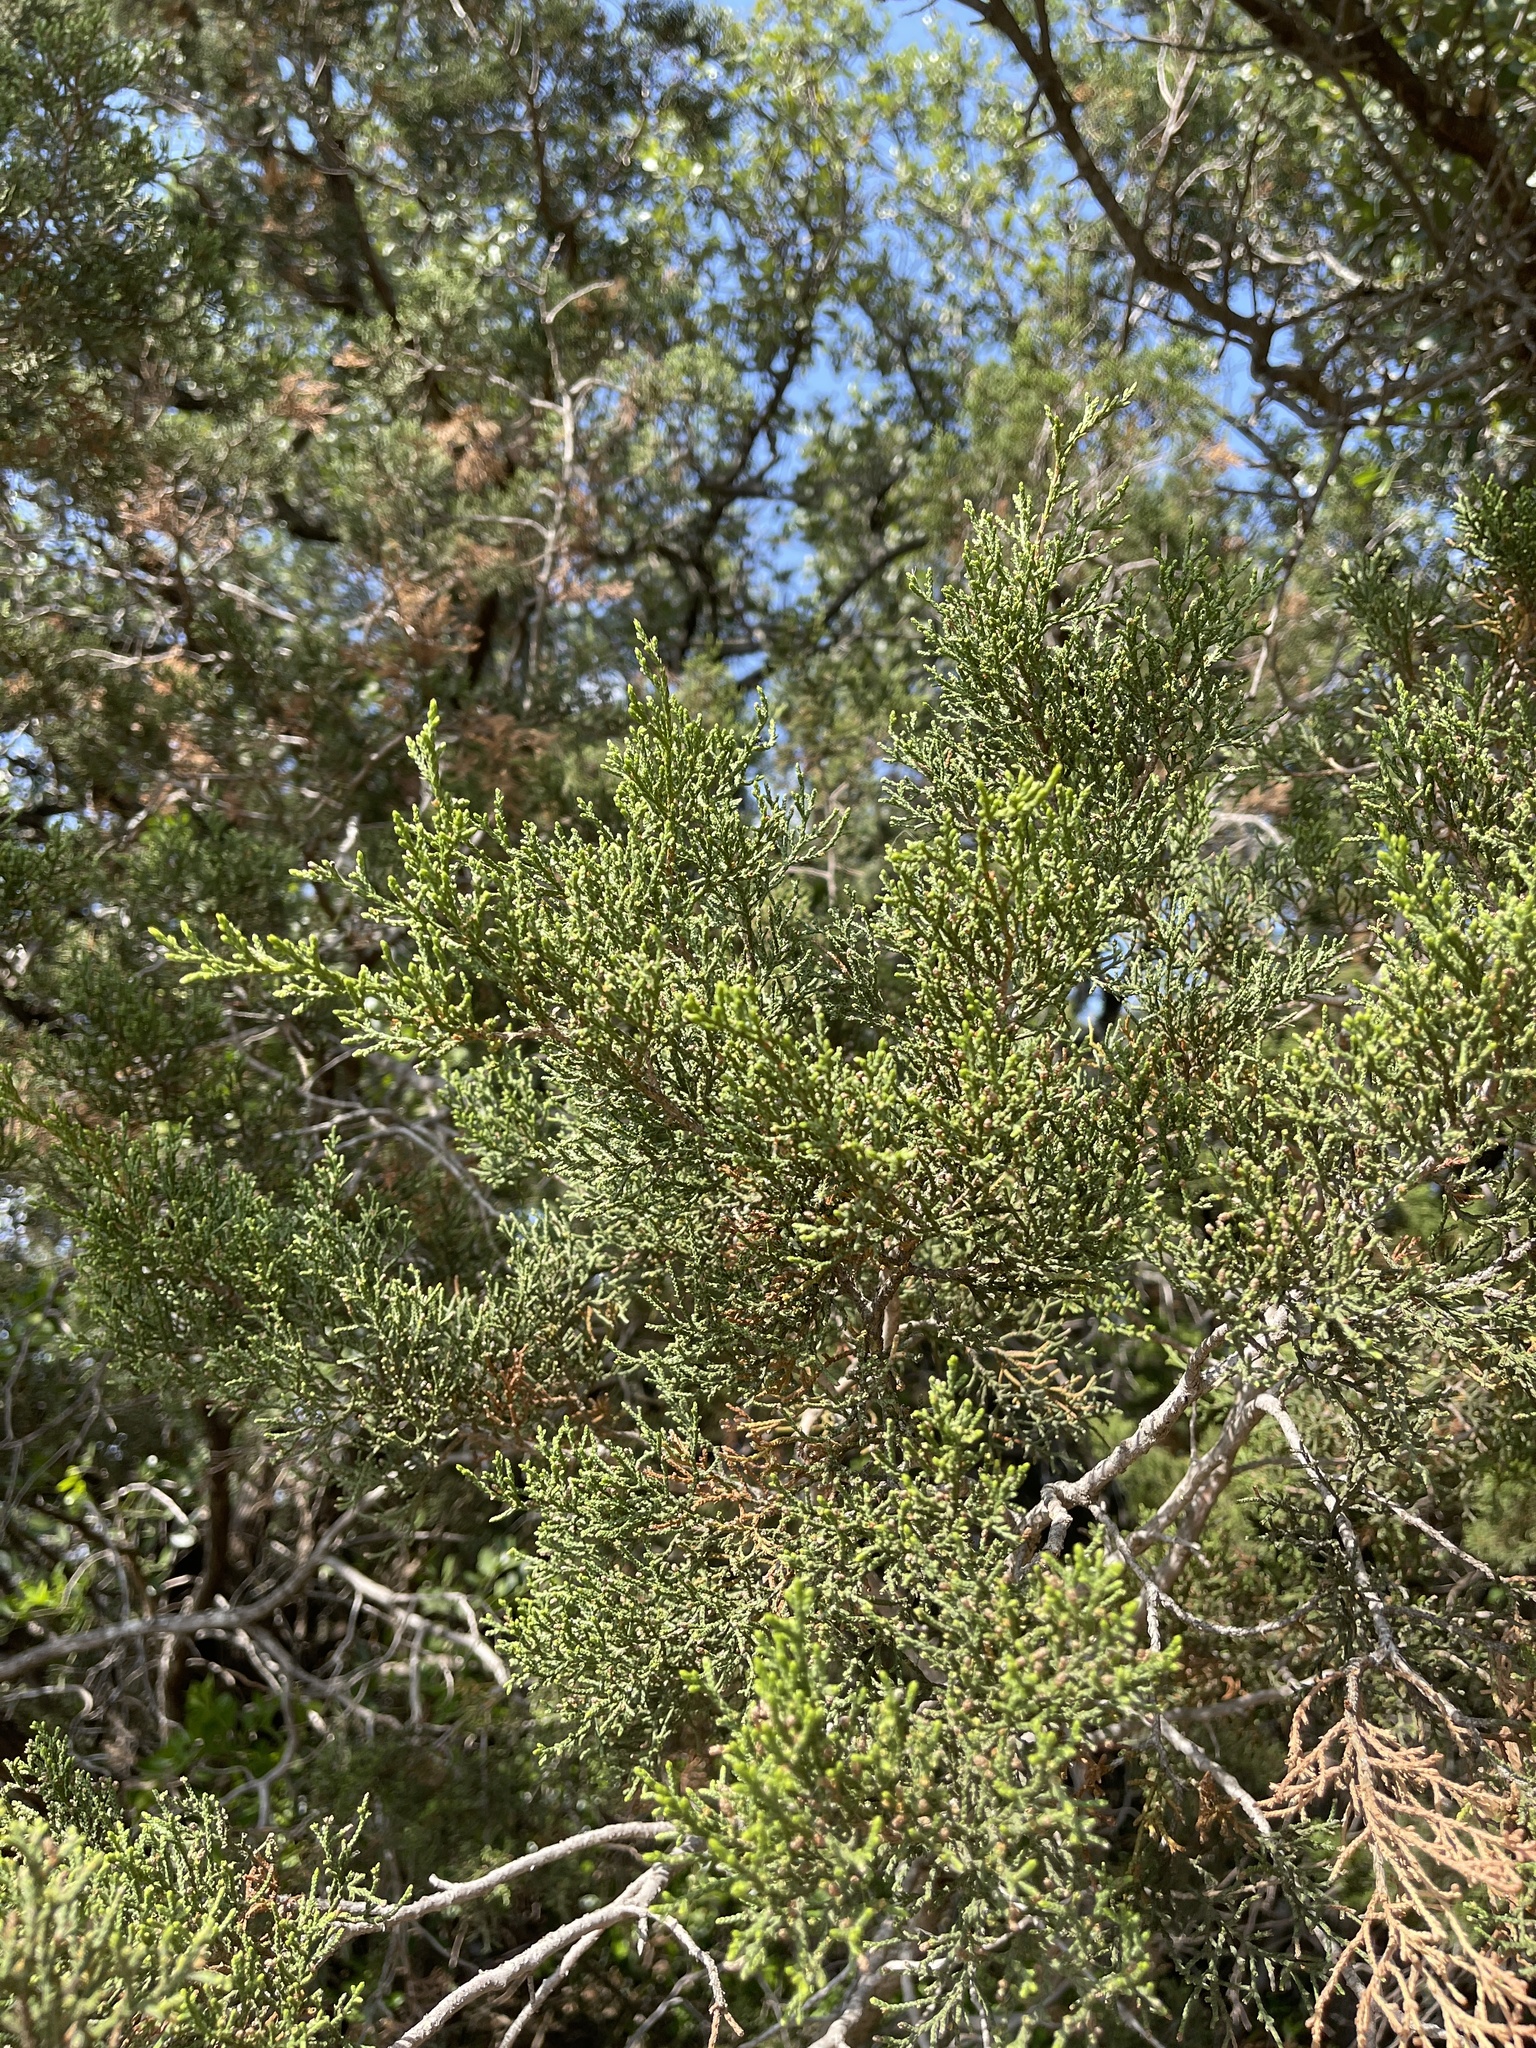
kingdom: Plantae
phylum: Tracheophyta
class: Pinopsida
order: Pinales
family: Cupressaceae
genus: Juniperus
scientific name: Juniperus ashei
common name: Mexican juniper
